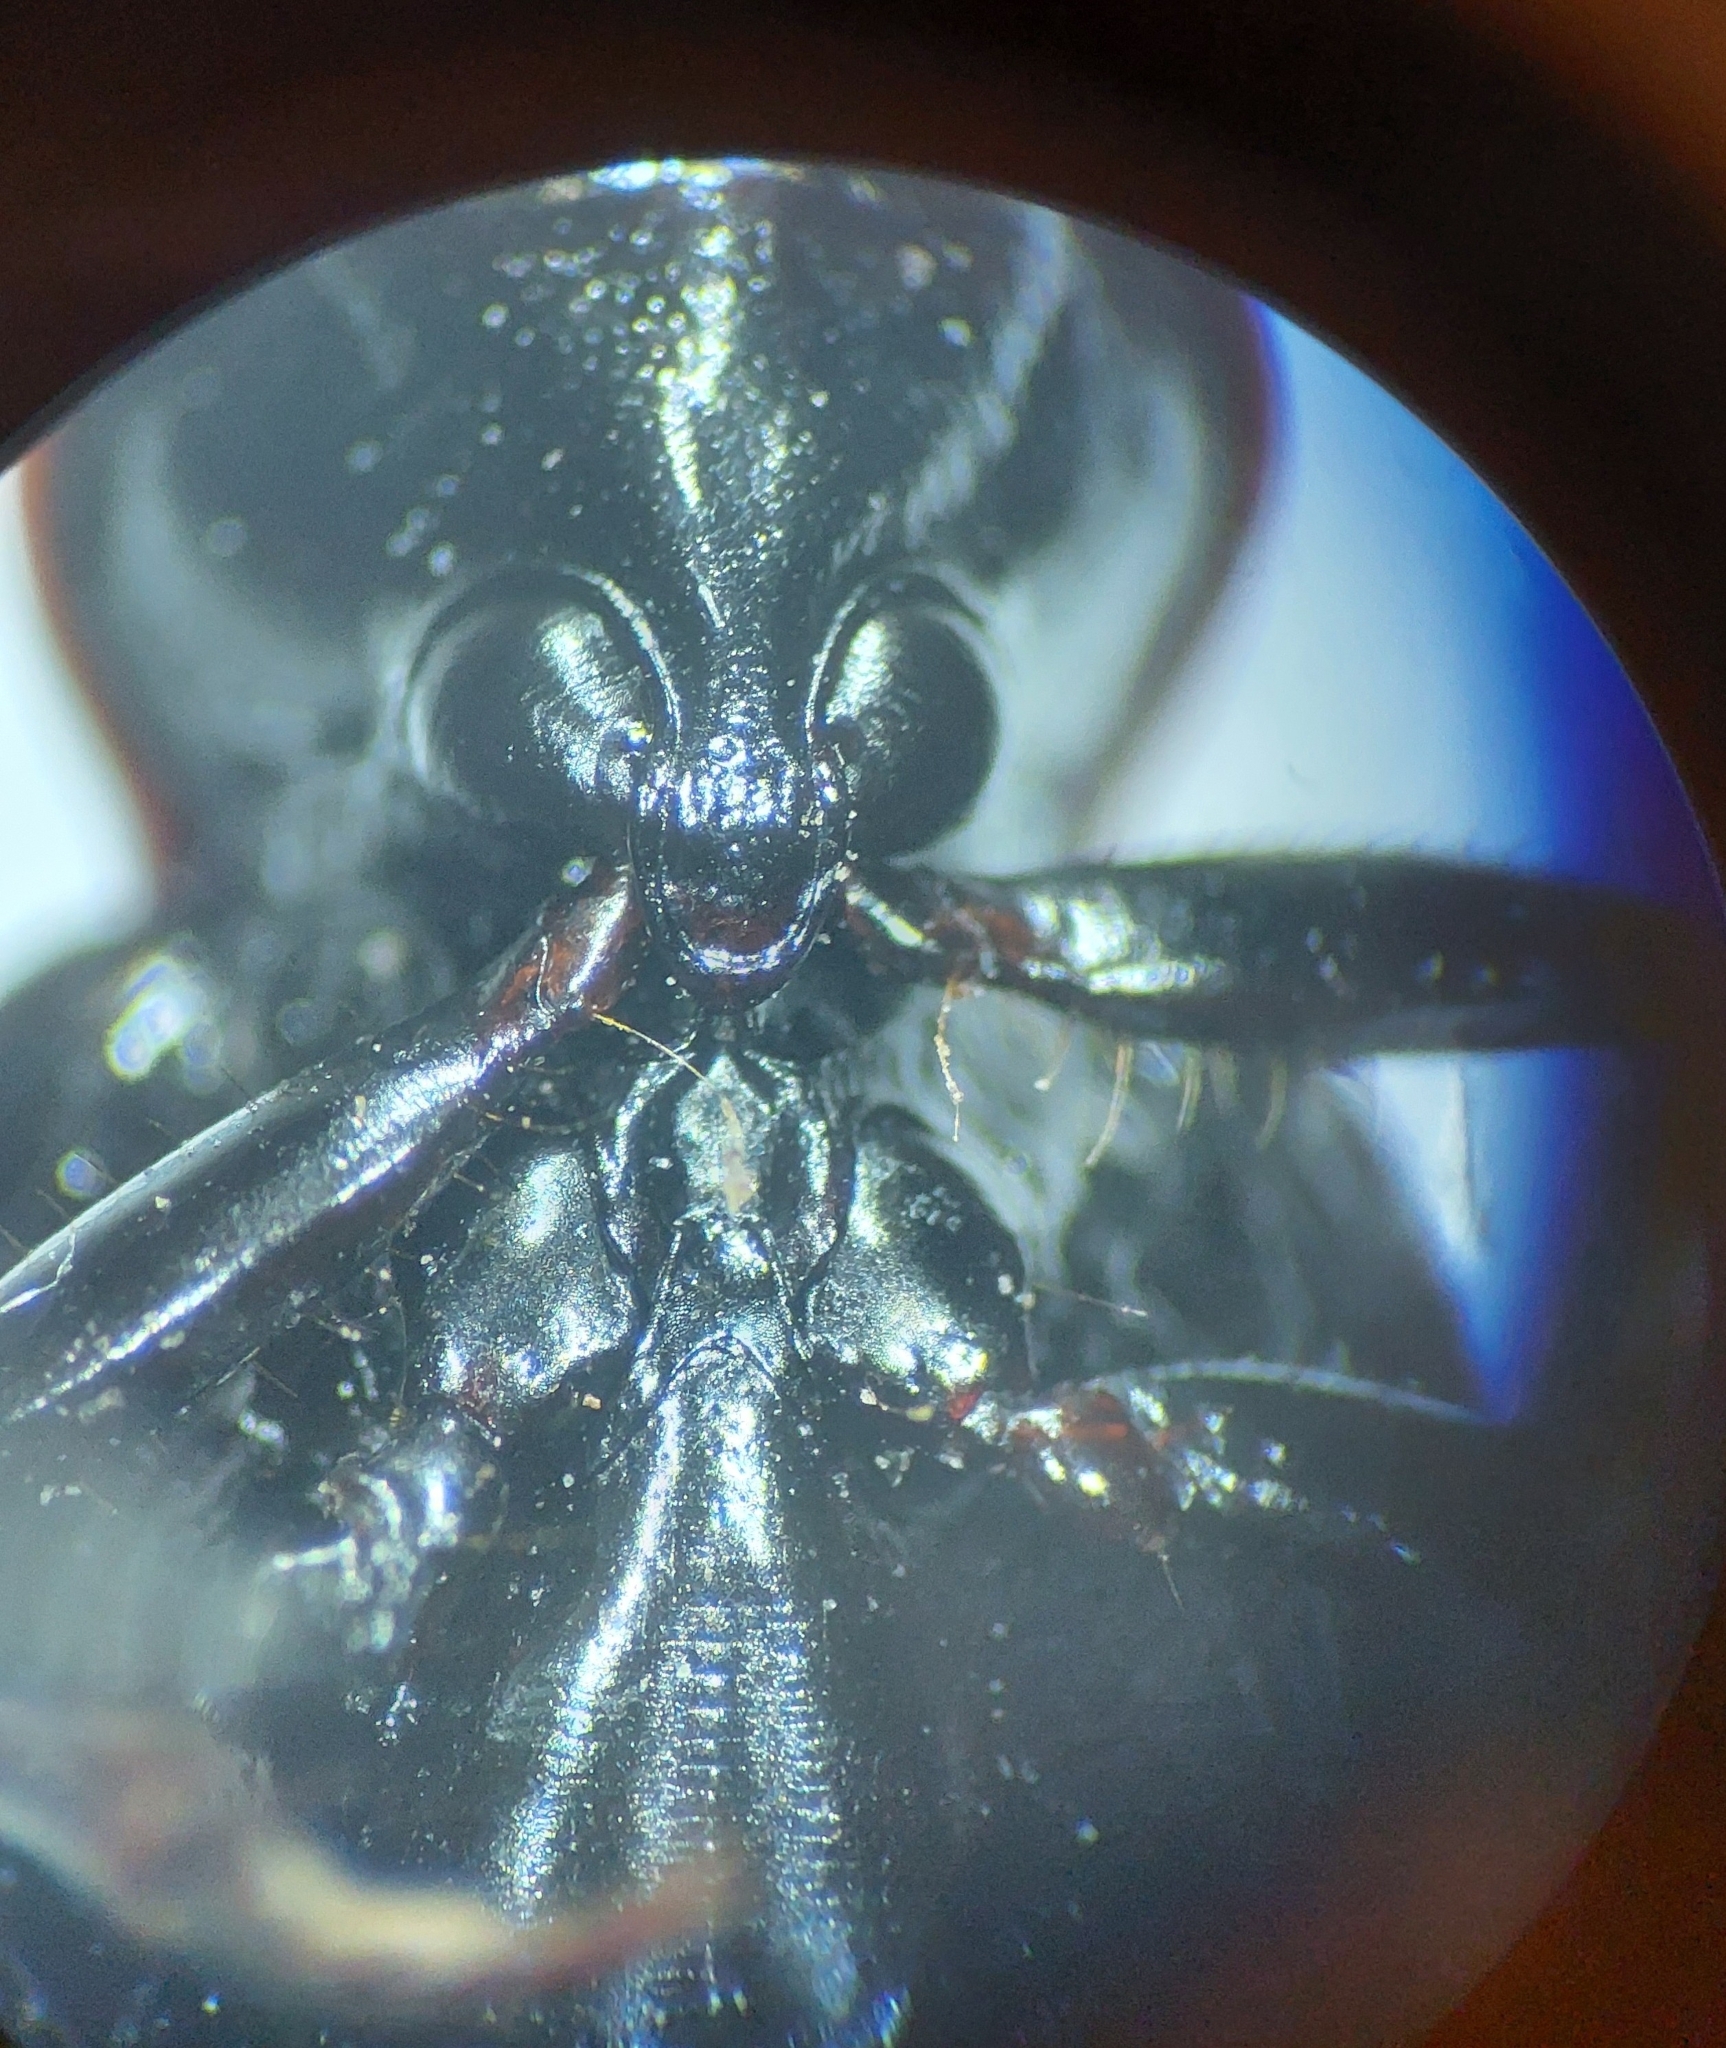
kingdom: Animalia
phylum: Arthropoda
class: Insecta
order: Coleoptera
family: Carabidae
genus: Nebria
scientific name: Nebria brevicollis
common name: Short-necked gazelle beetle
